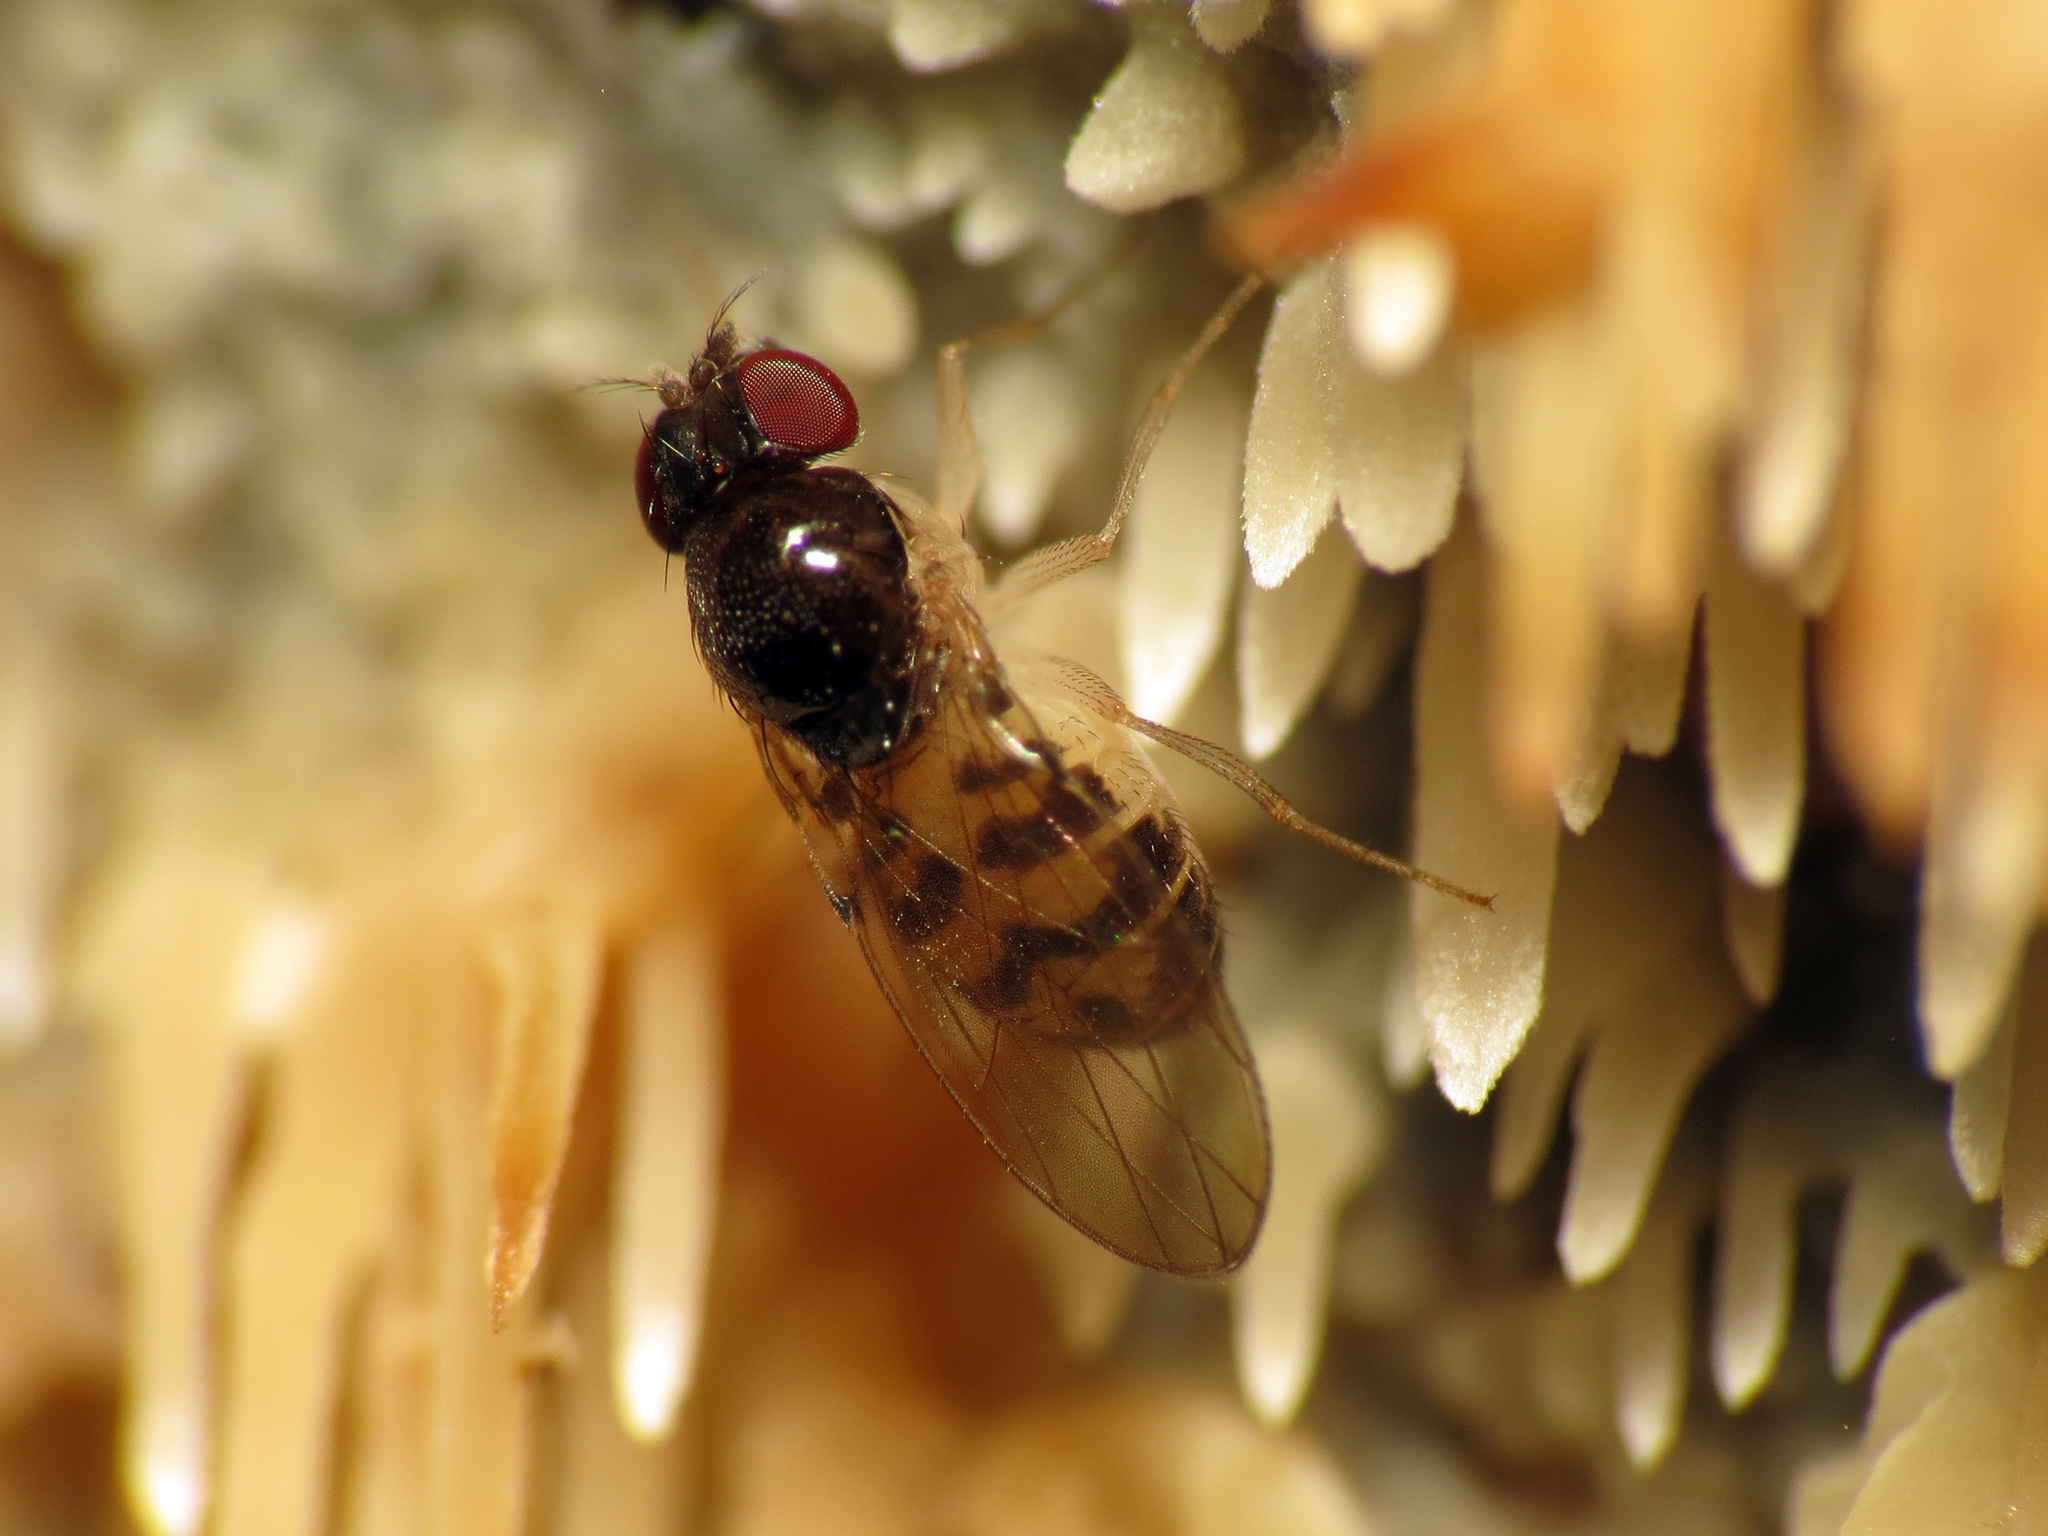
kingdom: Animalia
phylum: Arthropoda
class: Insecta
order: Diptera
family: Drosophilidae
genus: Mycodrosophila
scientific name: Mycodrosophila claytonae
